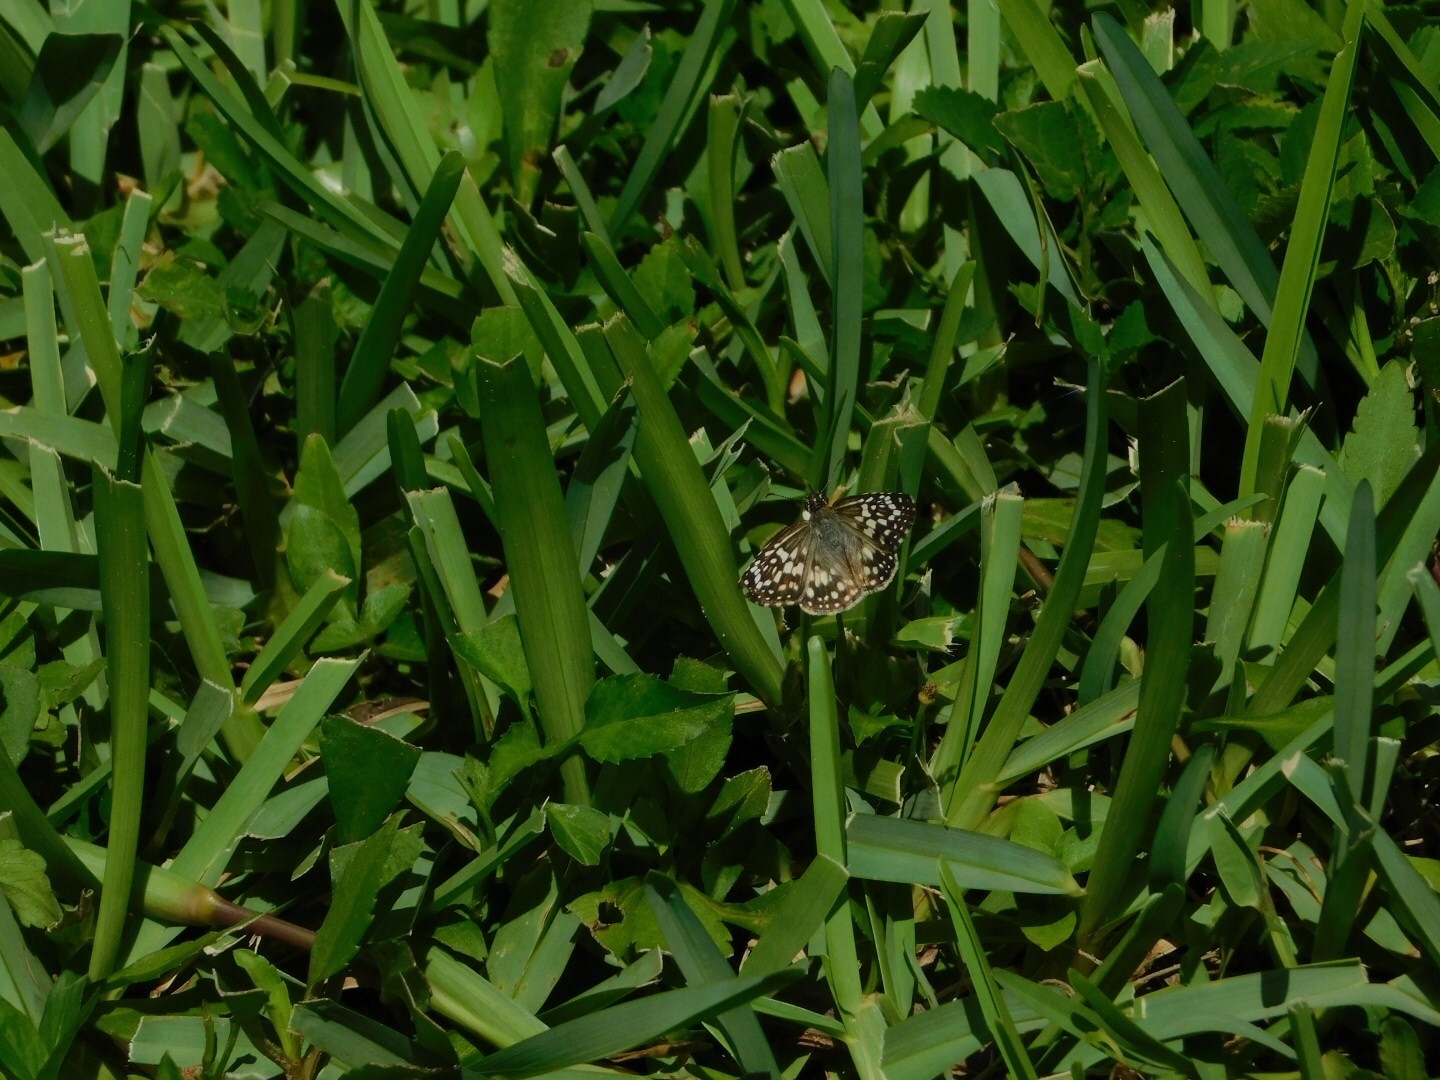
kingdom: Animalia
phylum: Arthropoda
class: Insecta
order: Lepidoptera
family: Hesperiidae
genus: Pyrgus
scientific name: Pyrgus oileus
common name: Tropical checkered-skipper
